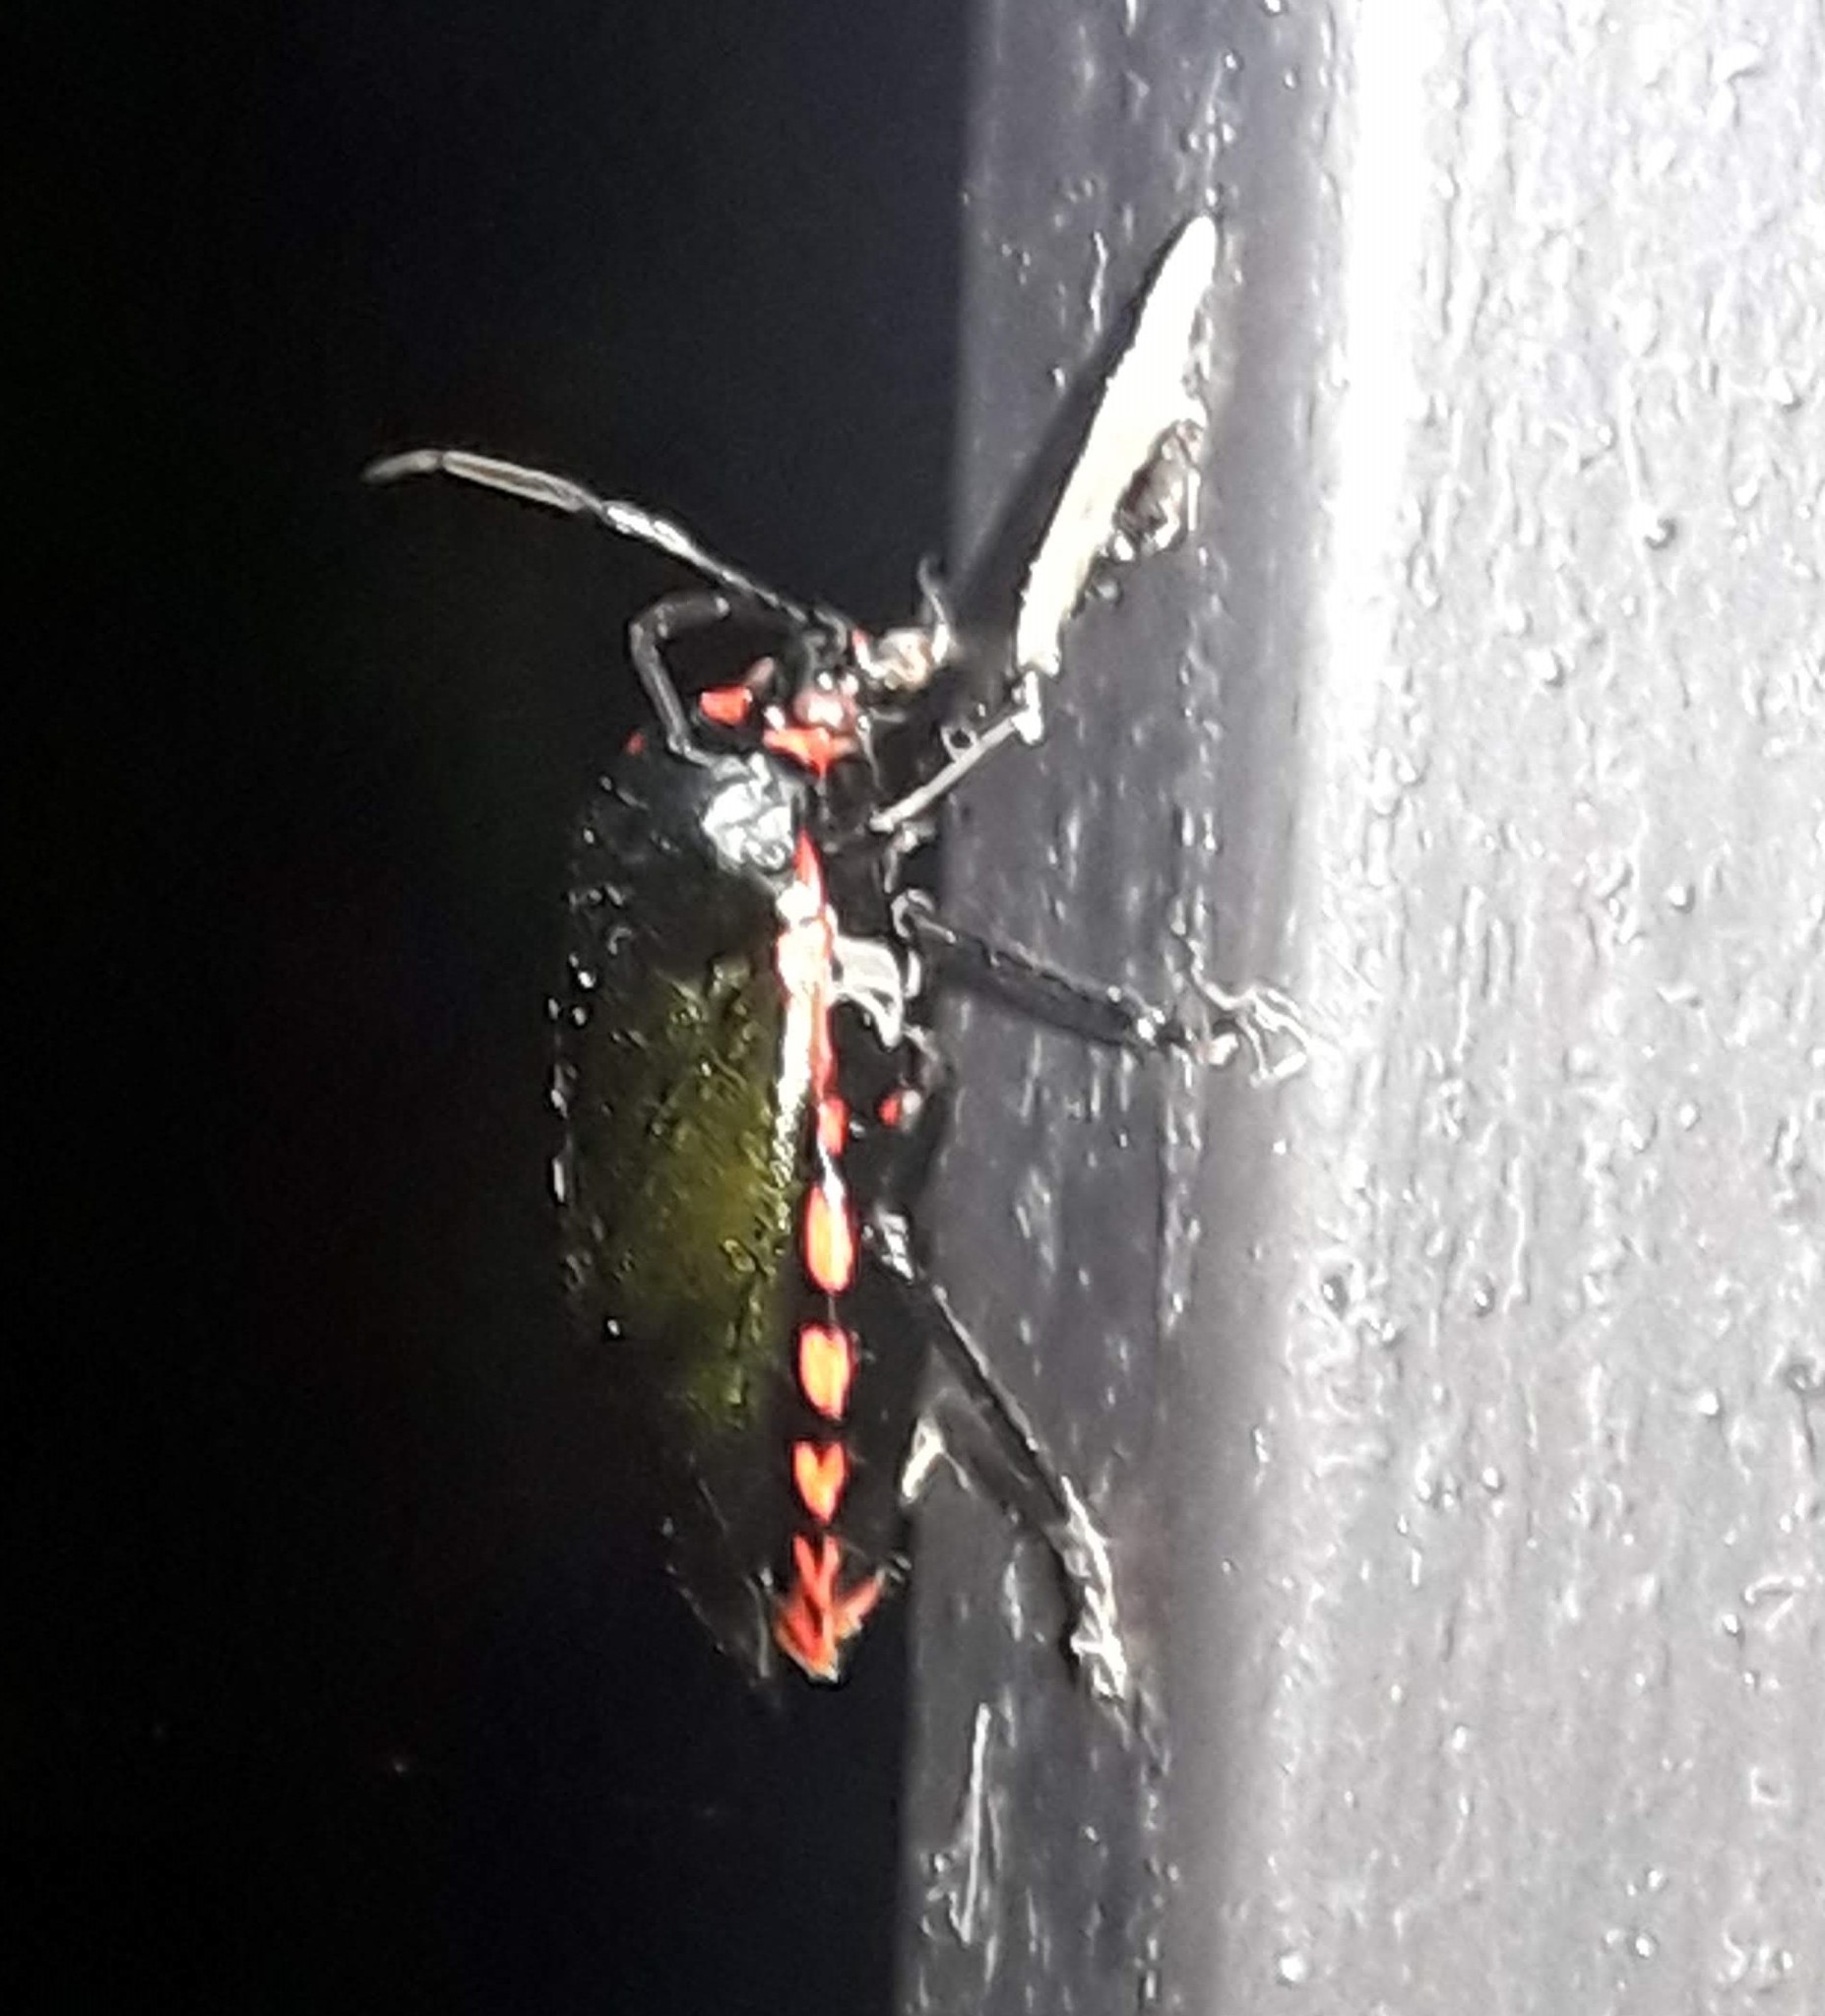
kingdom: Animalia
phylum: Arthropoda
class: Insecta
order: Hemiptera
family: Pentatomidae
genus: Rhyssocephala
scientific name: Rhyssocephala infuscata
